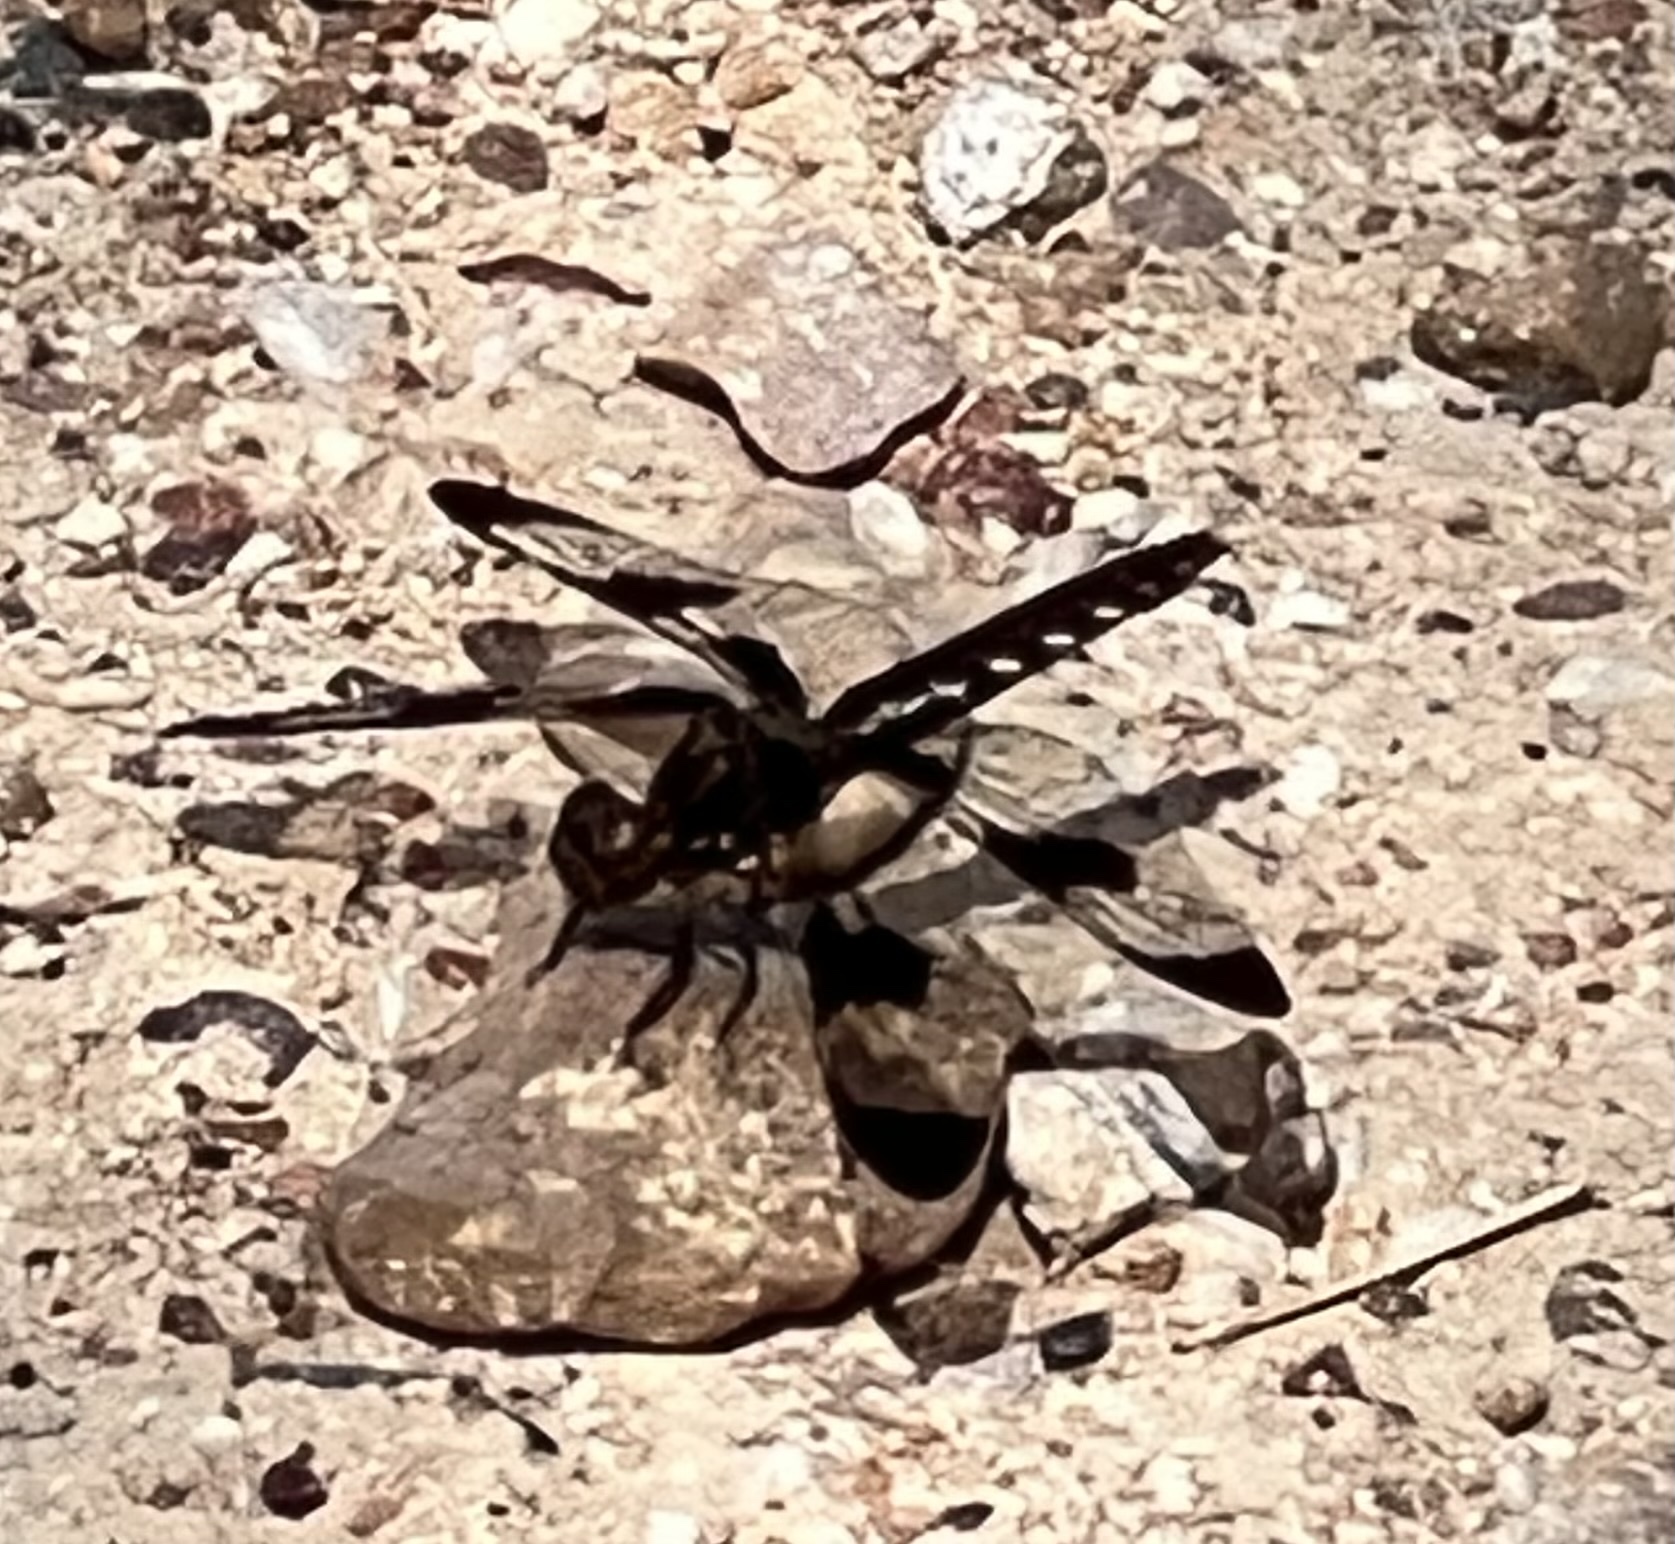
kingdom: Animalia
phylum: Arthropoda
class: Insecta
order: Odonata
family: Libellulidae
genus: Plathemis
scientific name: Plathemis lydia
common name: Common whitetail
